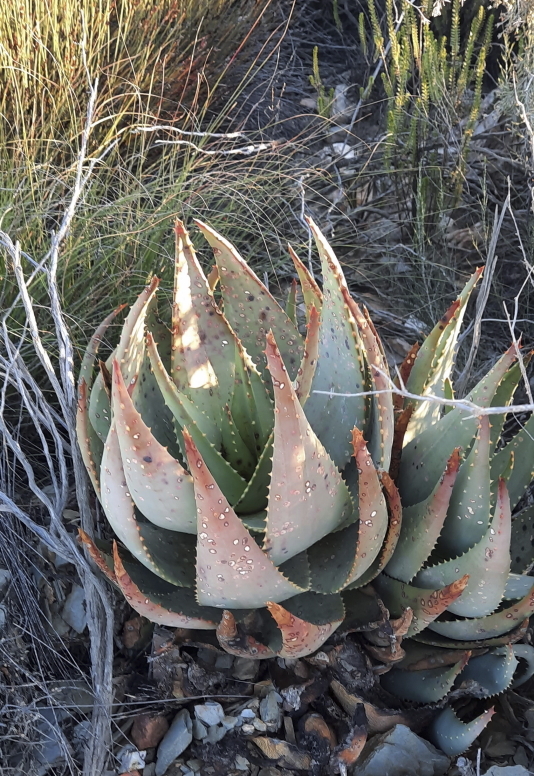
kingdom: Plantae
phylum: Tracheophyta
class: Liliopsida
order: Asparagales
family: Asphodelaceae
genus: Aloe
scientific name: Aloe comptonii
